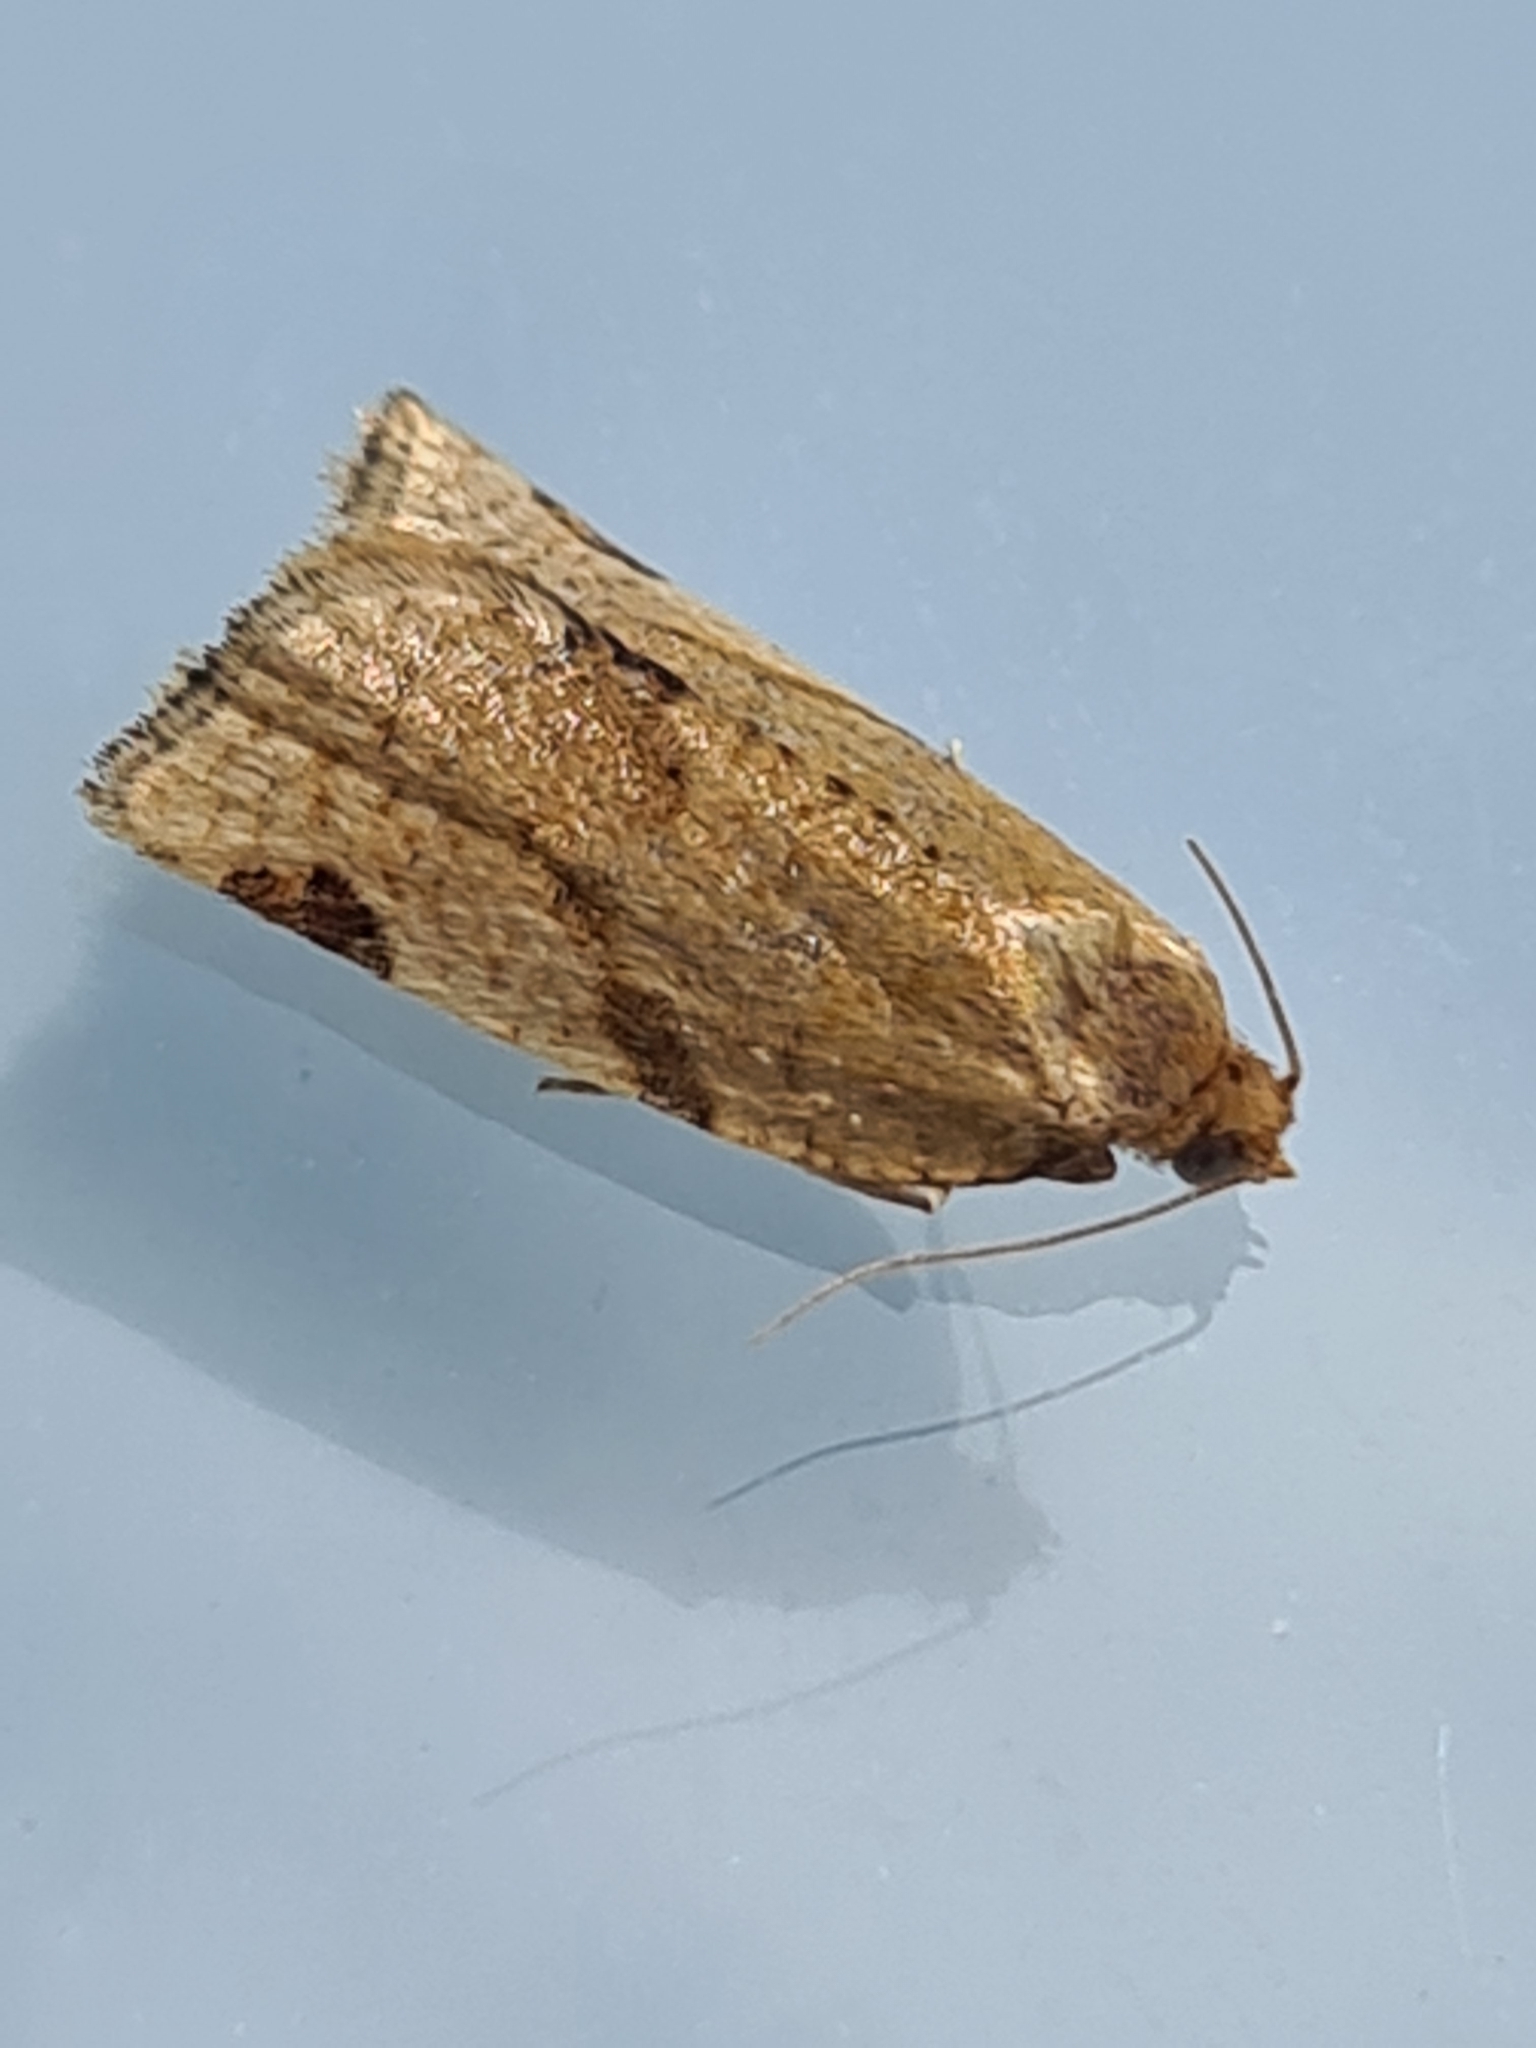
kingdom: Animalia
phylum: Arthropoda
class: Insecta
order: Lepidoptera
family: Tortricidae
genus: Paramesia
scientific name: Paramesia gnomana
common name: Small straw twist
